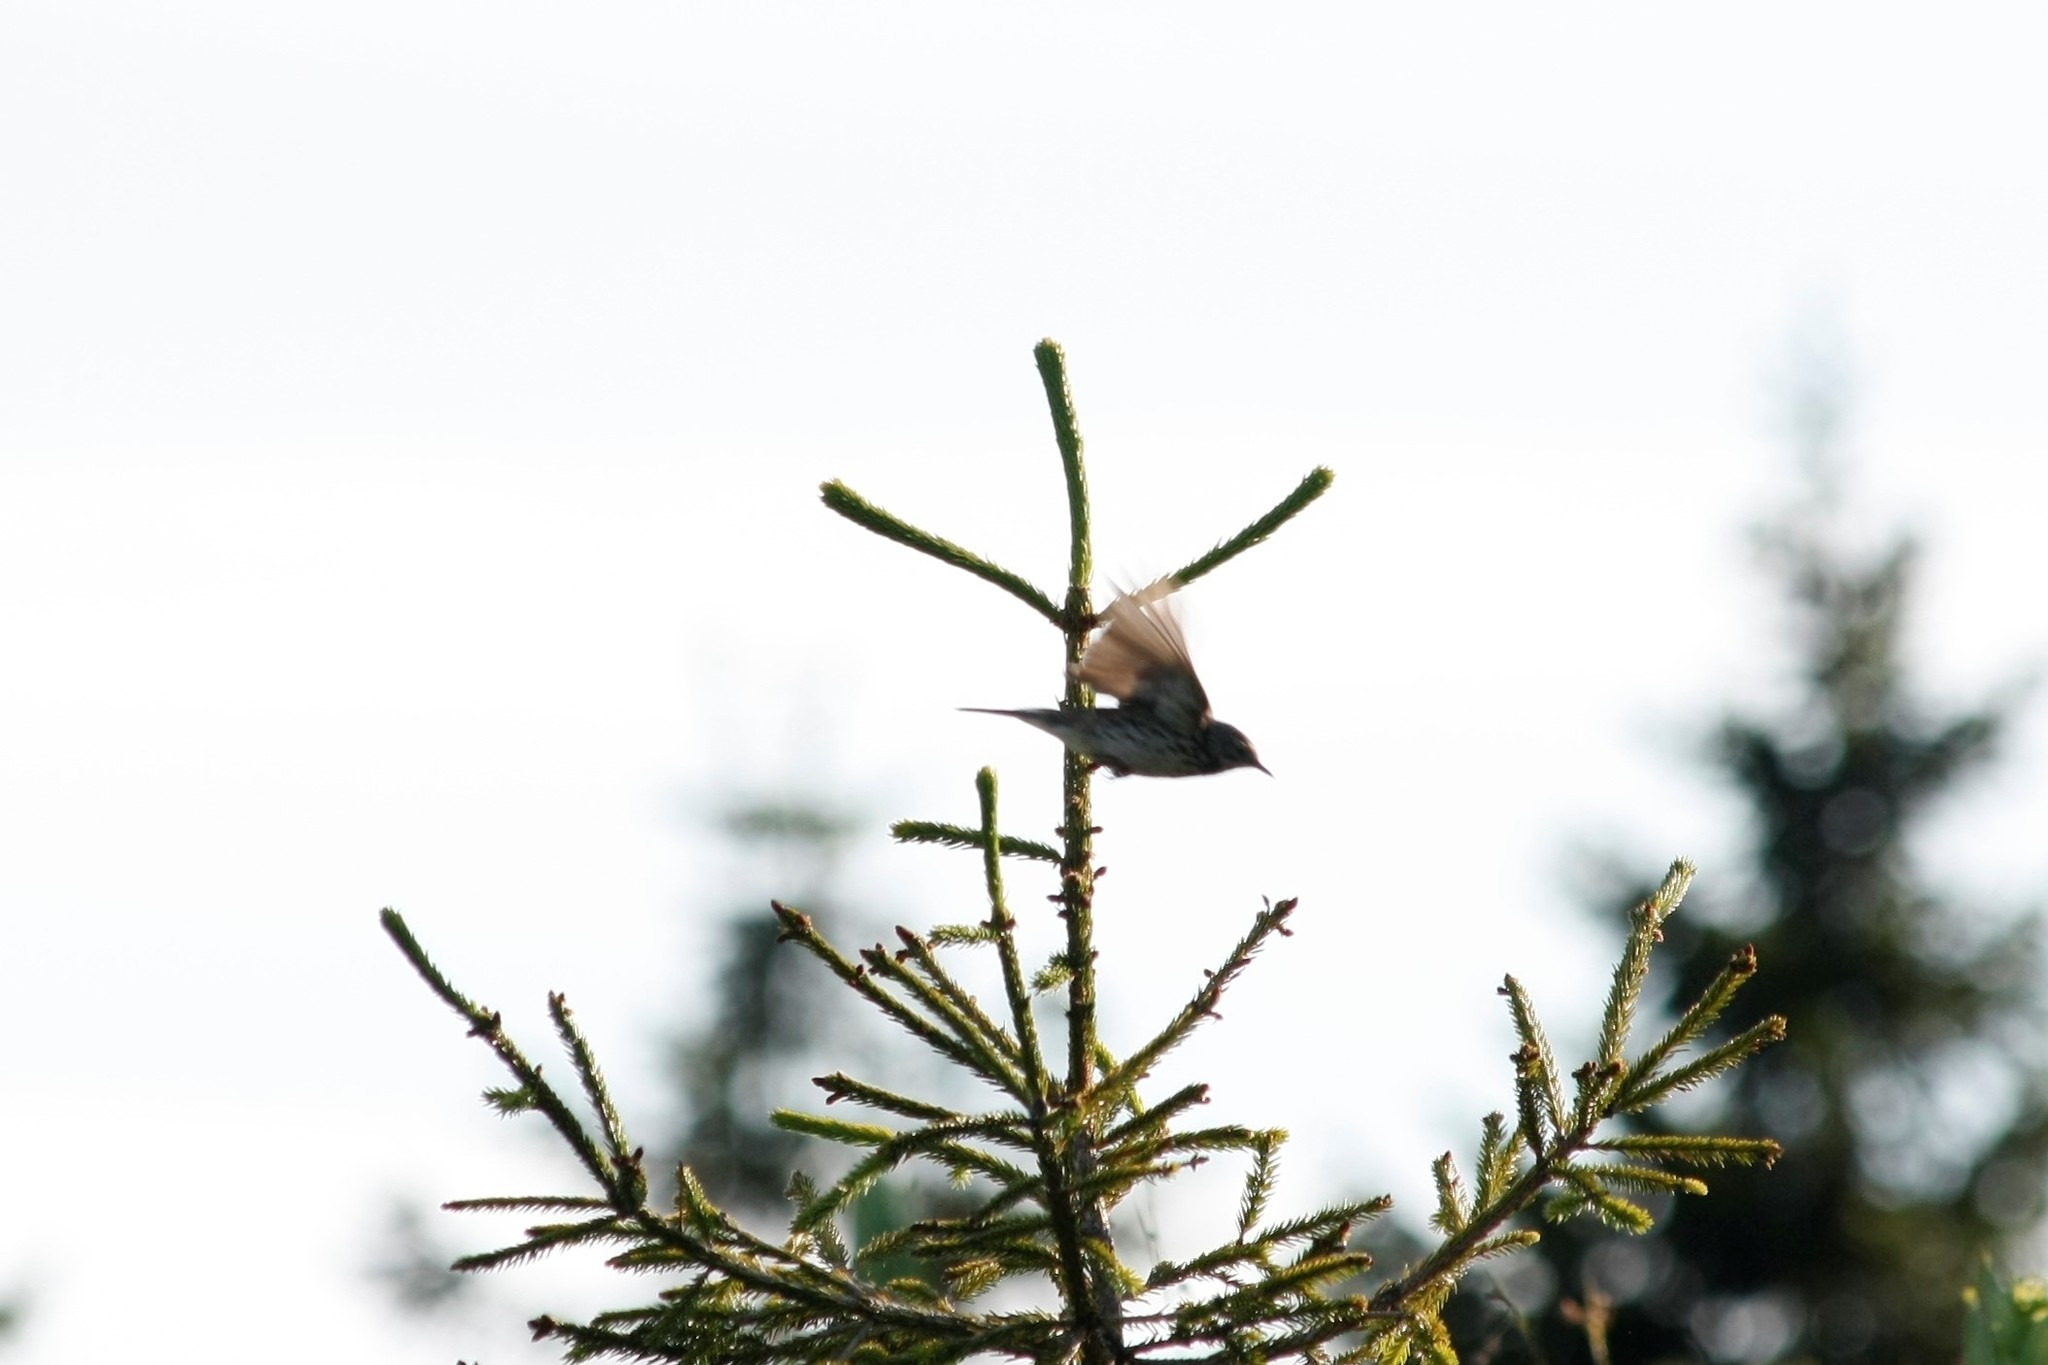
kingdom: Animalia
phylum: Chordata
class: Aves
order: Passeriformes
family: Motacillidae
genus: Anthus
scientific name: Anthus pratensis
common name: Meadow pipit
